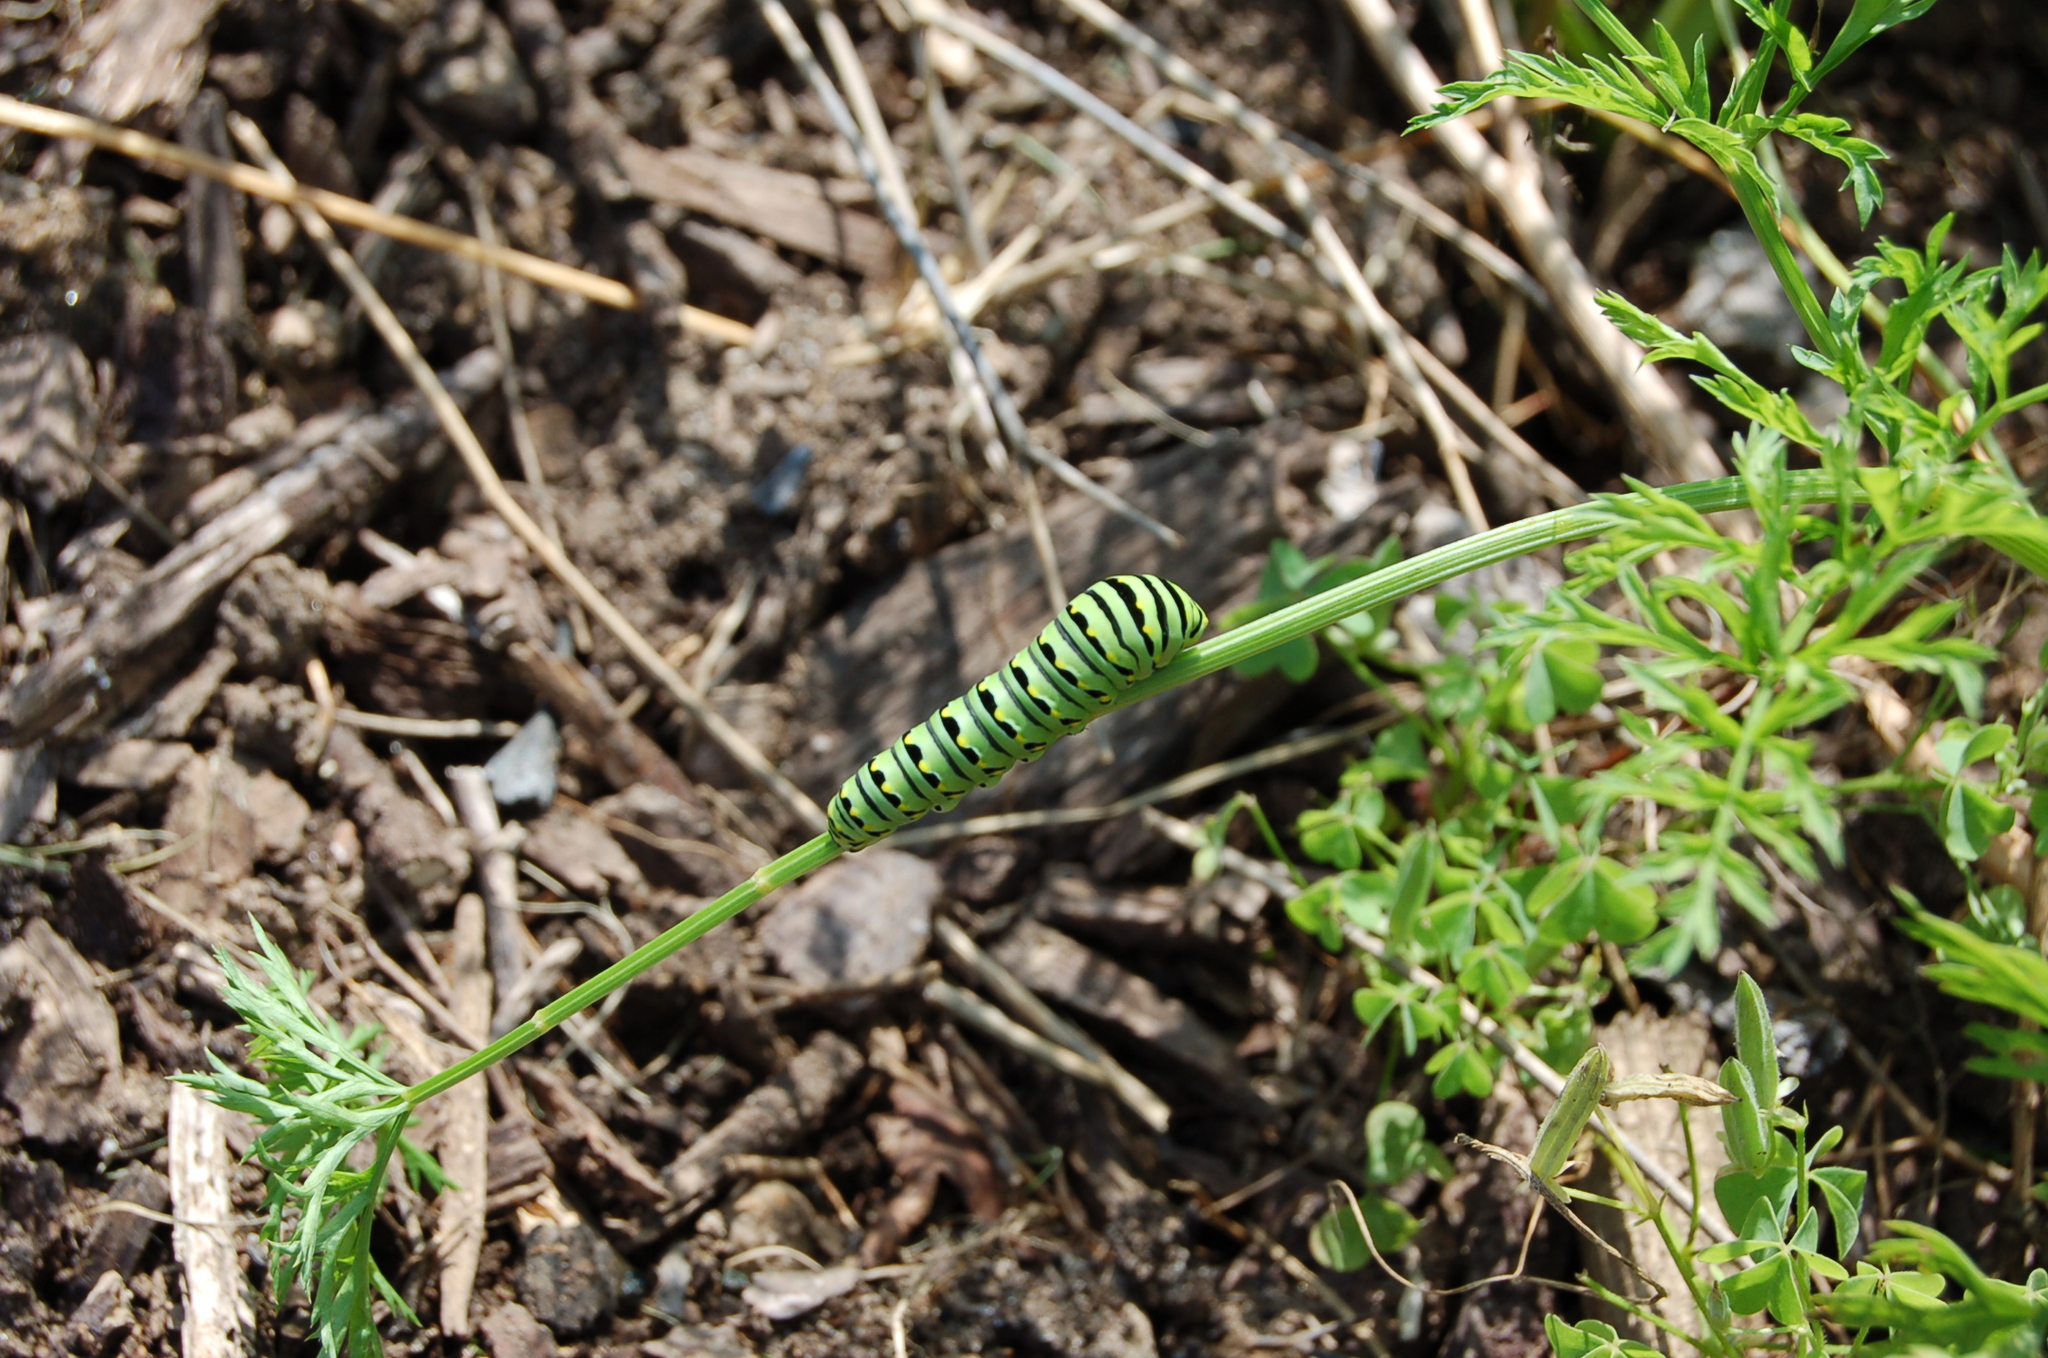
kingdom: Animalia
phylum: Arthropoda
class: Insecta
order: Lepidoptera
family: Papilionidae
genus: Papilio
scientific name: Papilio polyxenes
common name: Black swallowtail
